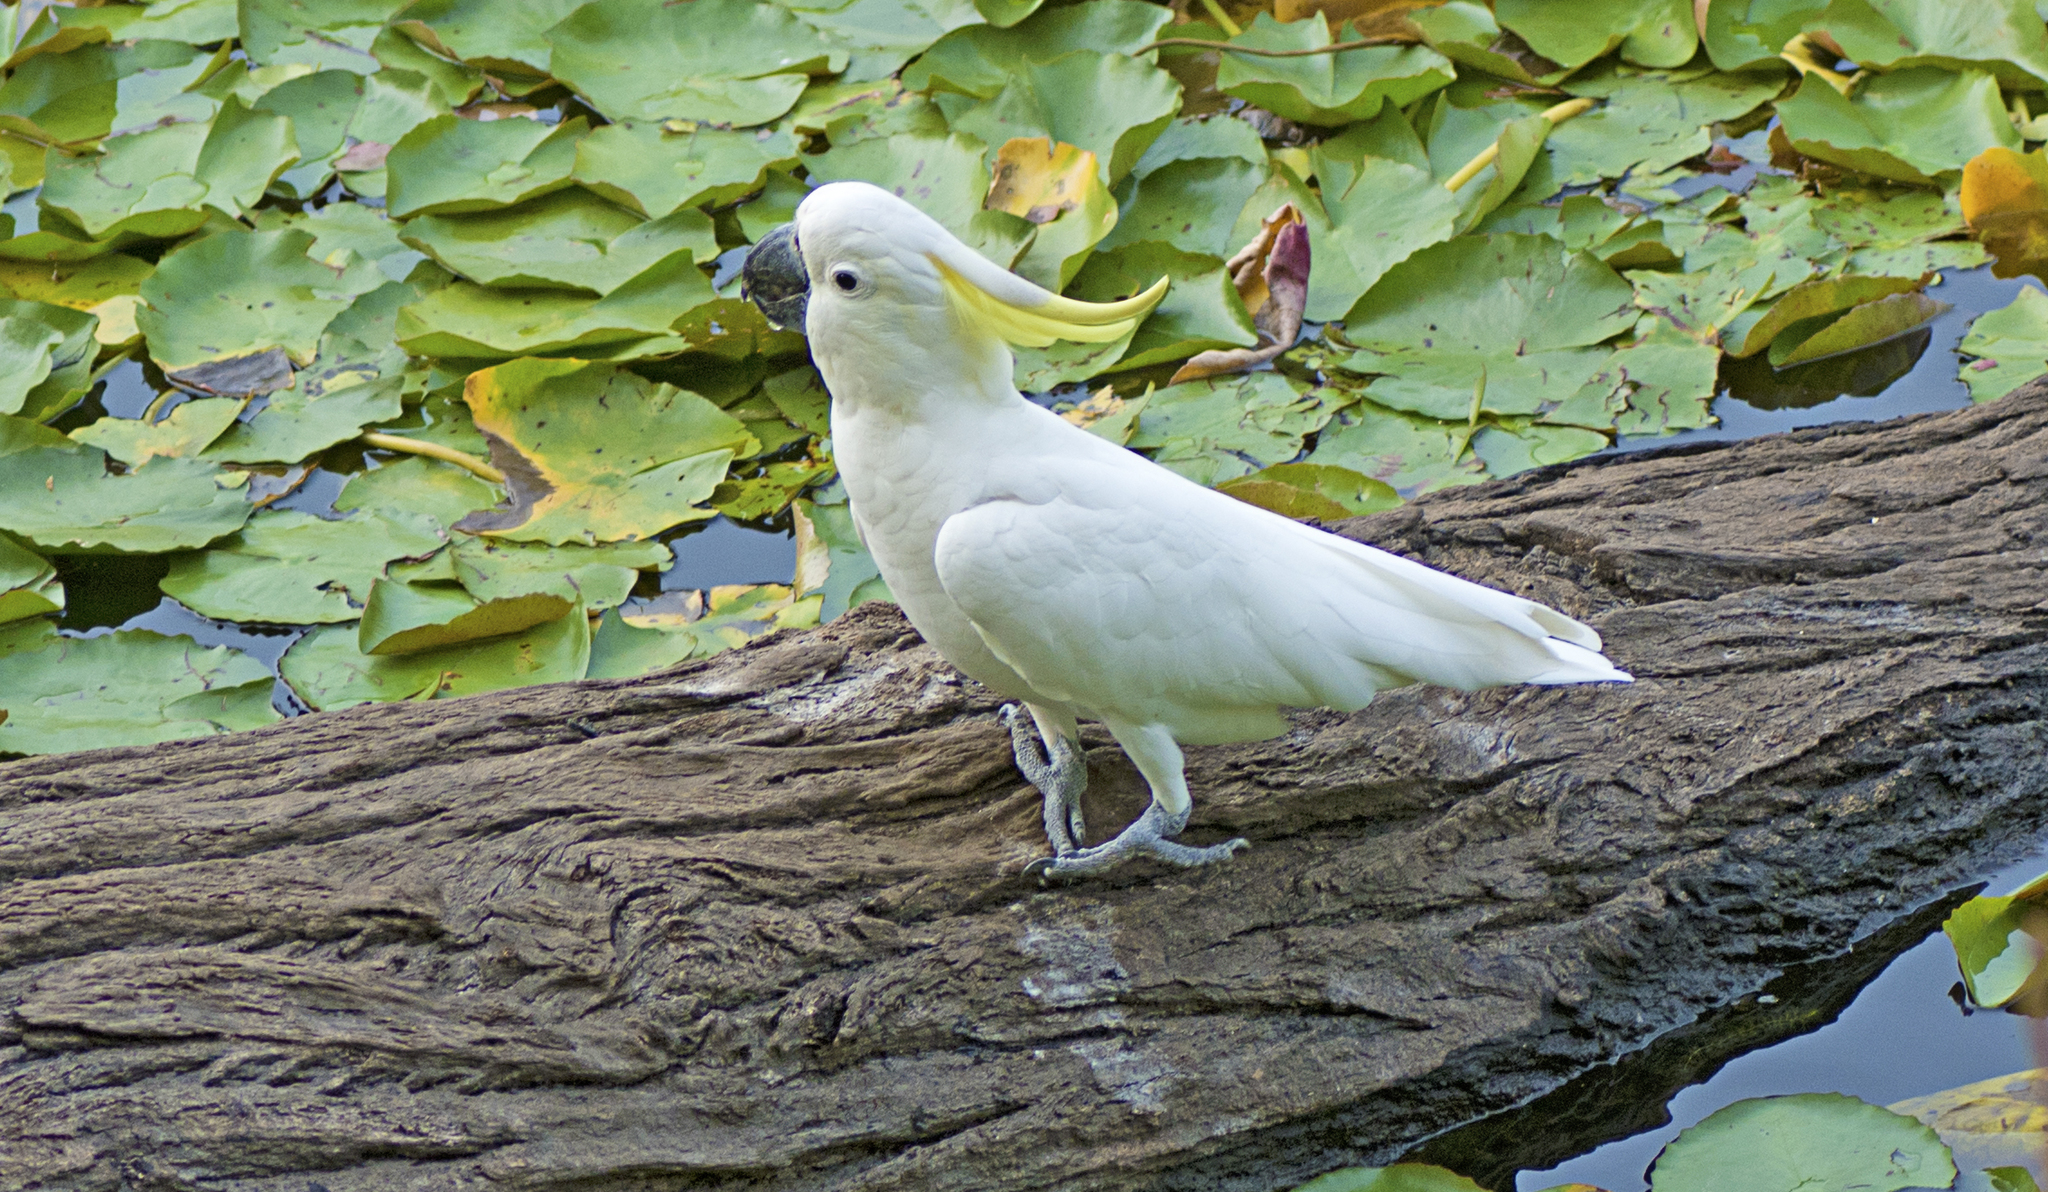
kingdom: Animalia
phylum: Chordata
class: Aves
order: Psittaciformes
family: Psittacidae
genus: Cacatua
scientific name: Cacatua galerita
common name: Sulphur-crested cockatoo
